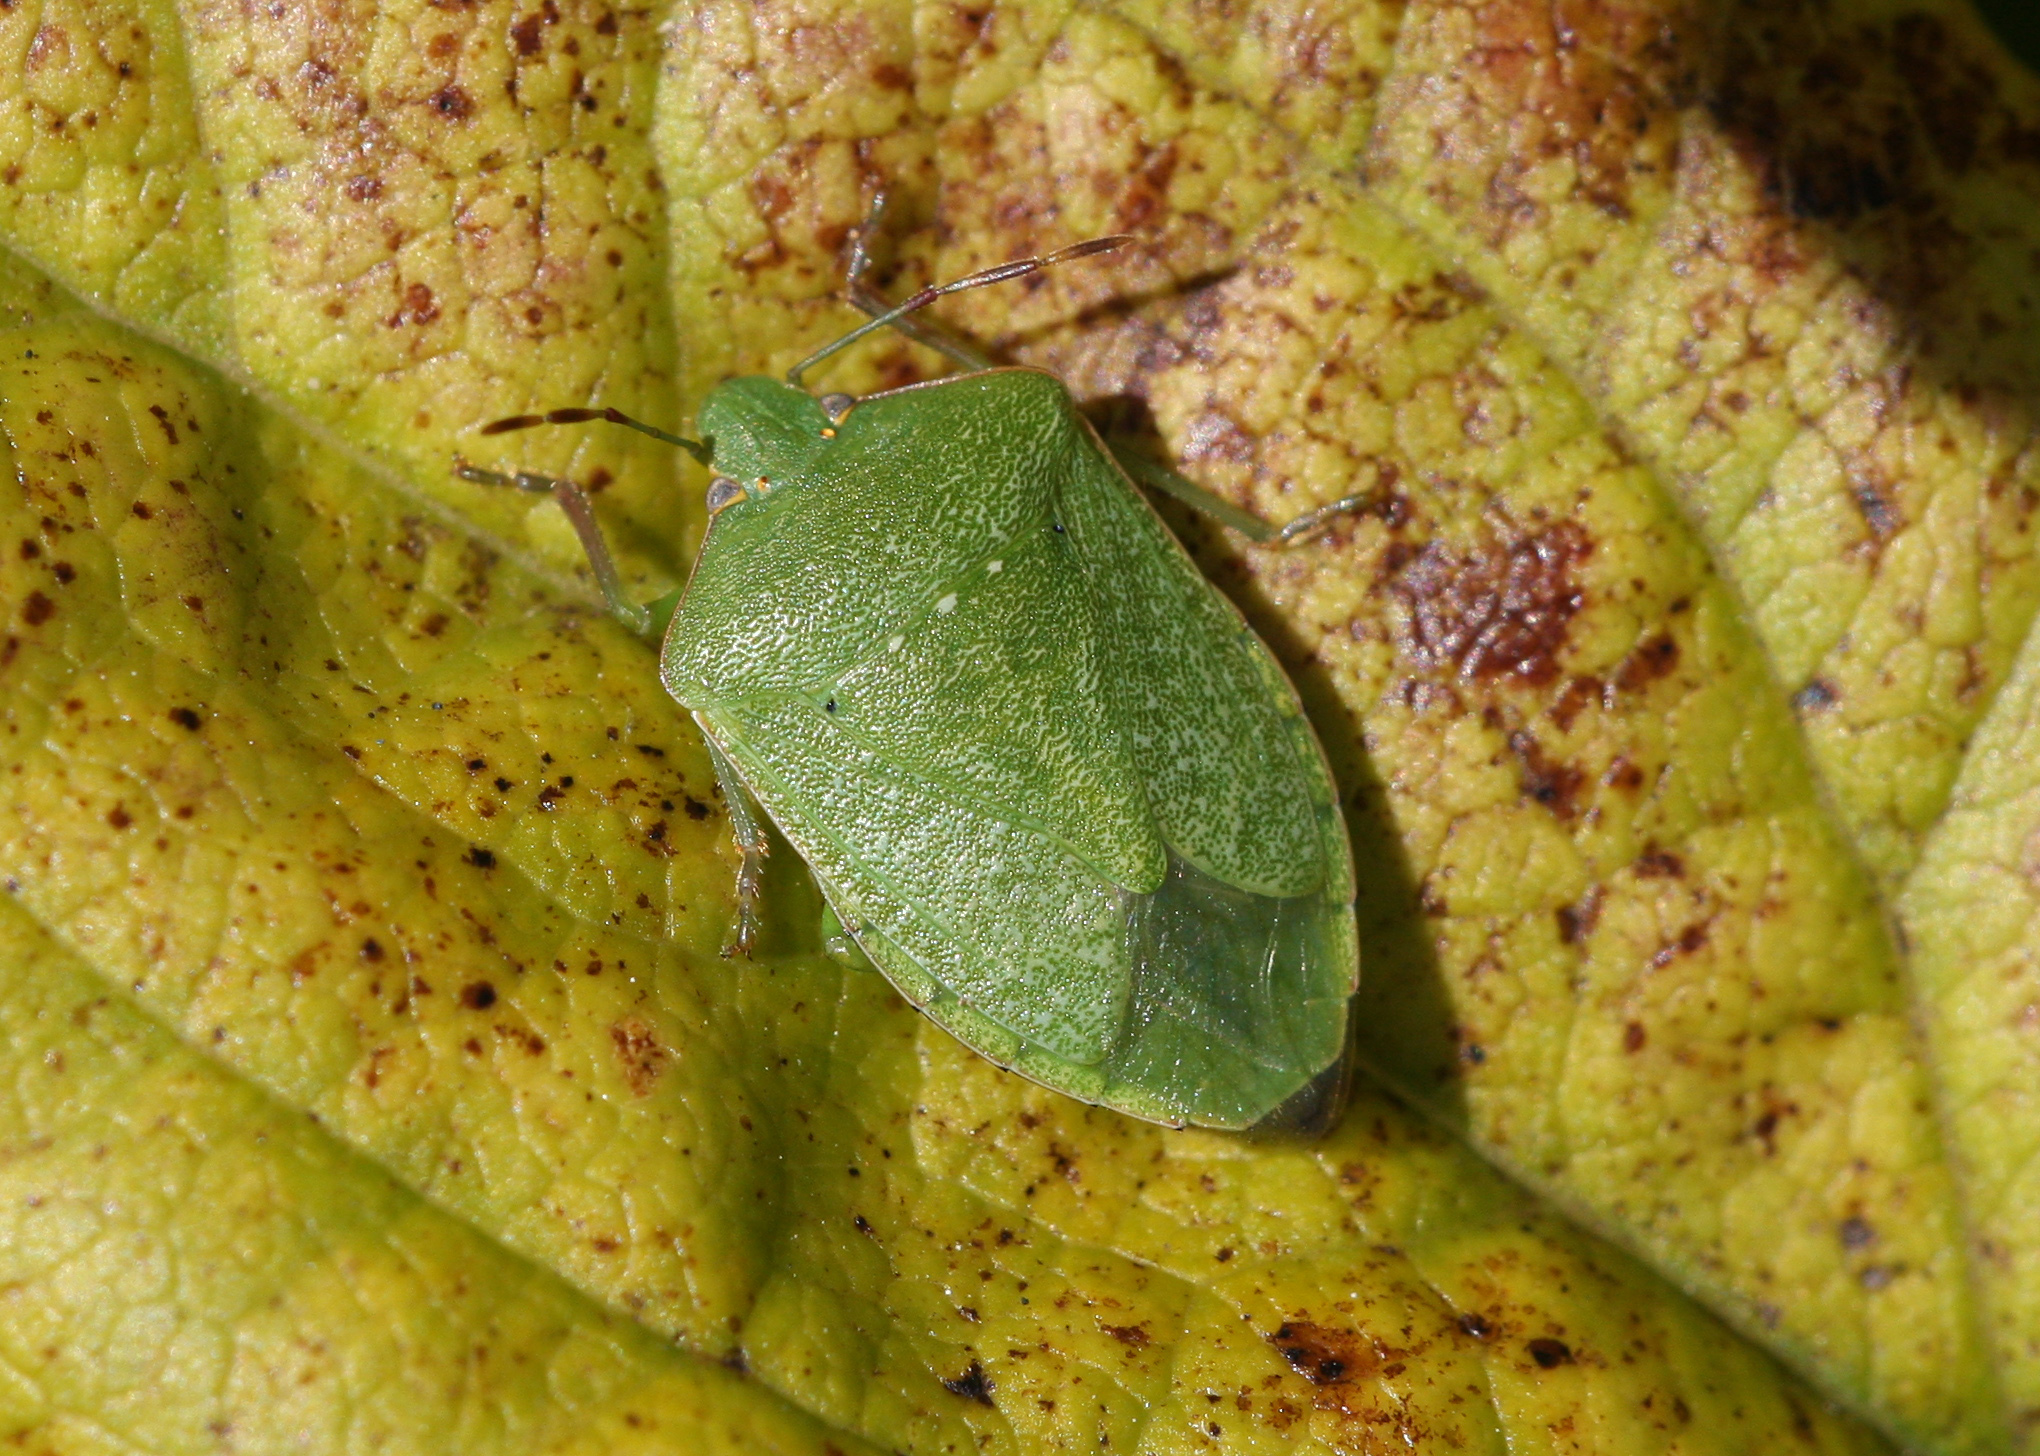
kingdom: Animalia
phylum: Arthropoda
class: Insecta
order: Hemiptera
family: Pentatomidae
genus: Nezara
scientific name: Nezara viridula
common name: Southern green stink bug
